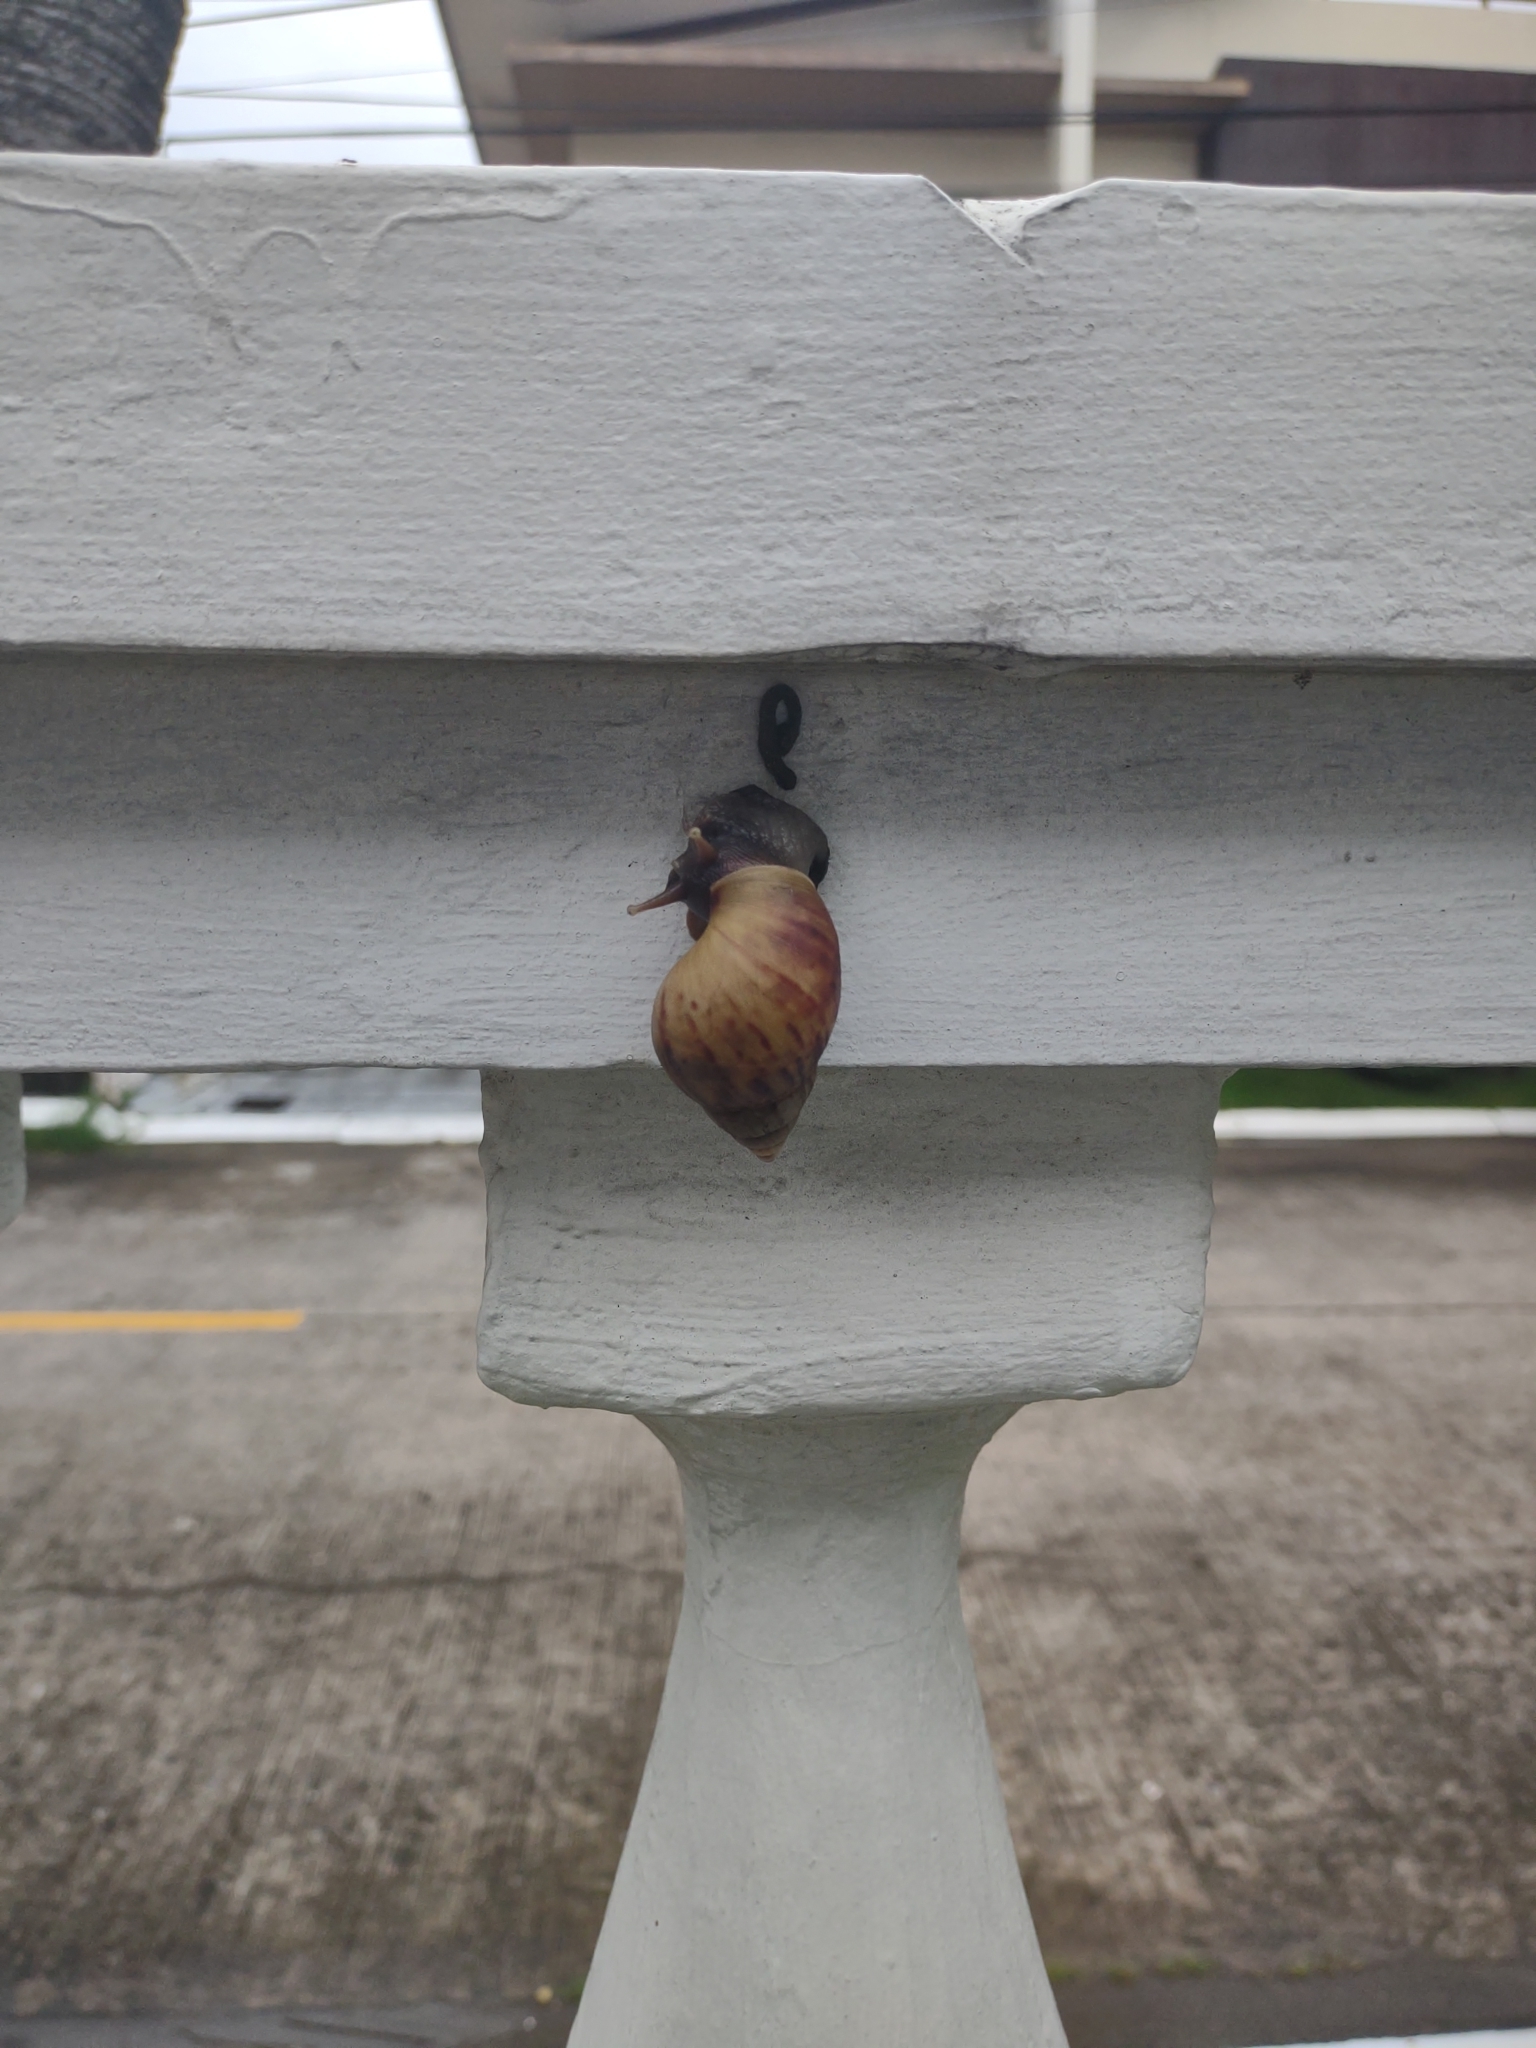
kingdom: Animalia
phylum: Mollusca
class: Gastropoda
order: Stylommatophora
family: Achatinidae
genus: Lissachatina
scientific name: Lissachatina fulica
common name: Giant african snail
